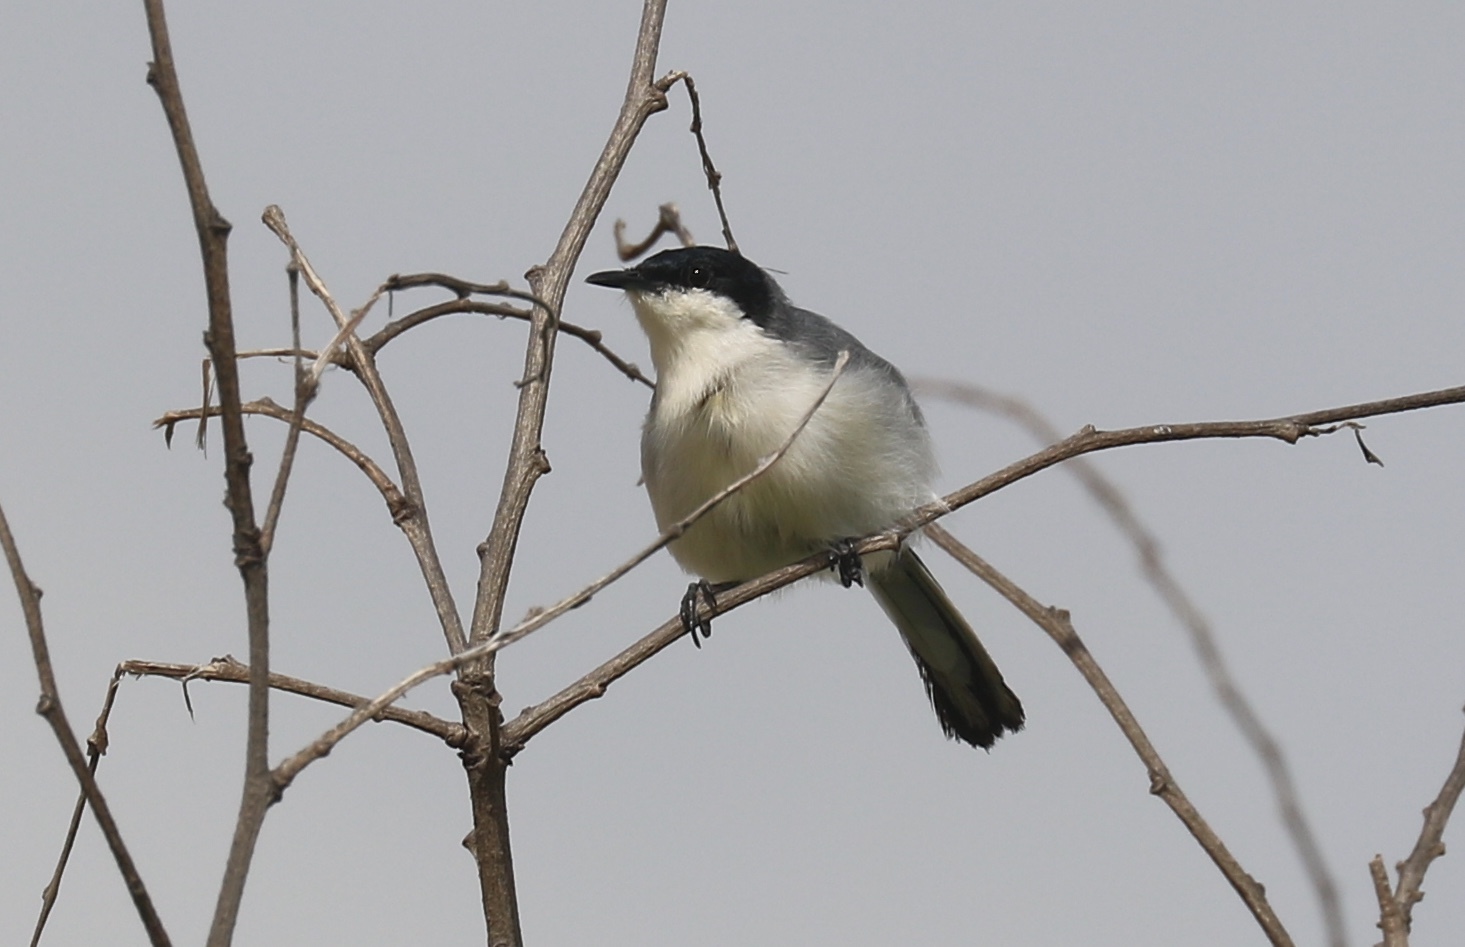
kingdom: Animalia
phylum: Chordata
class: Aves
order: Passeriformes
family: Polioptilidae
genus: Polioptila
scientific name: Polioptila plumbea
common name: Tropical gnatcatcher
